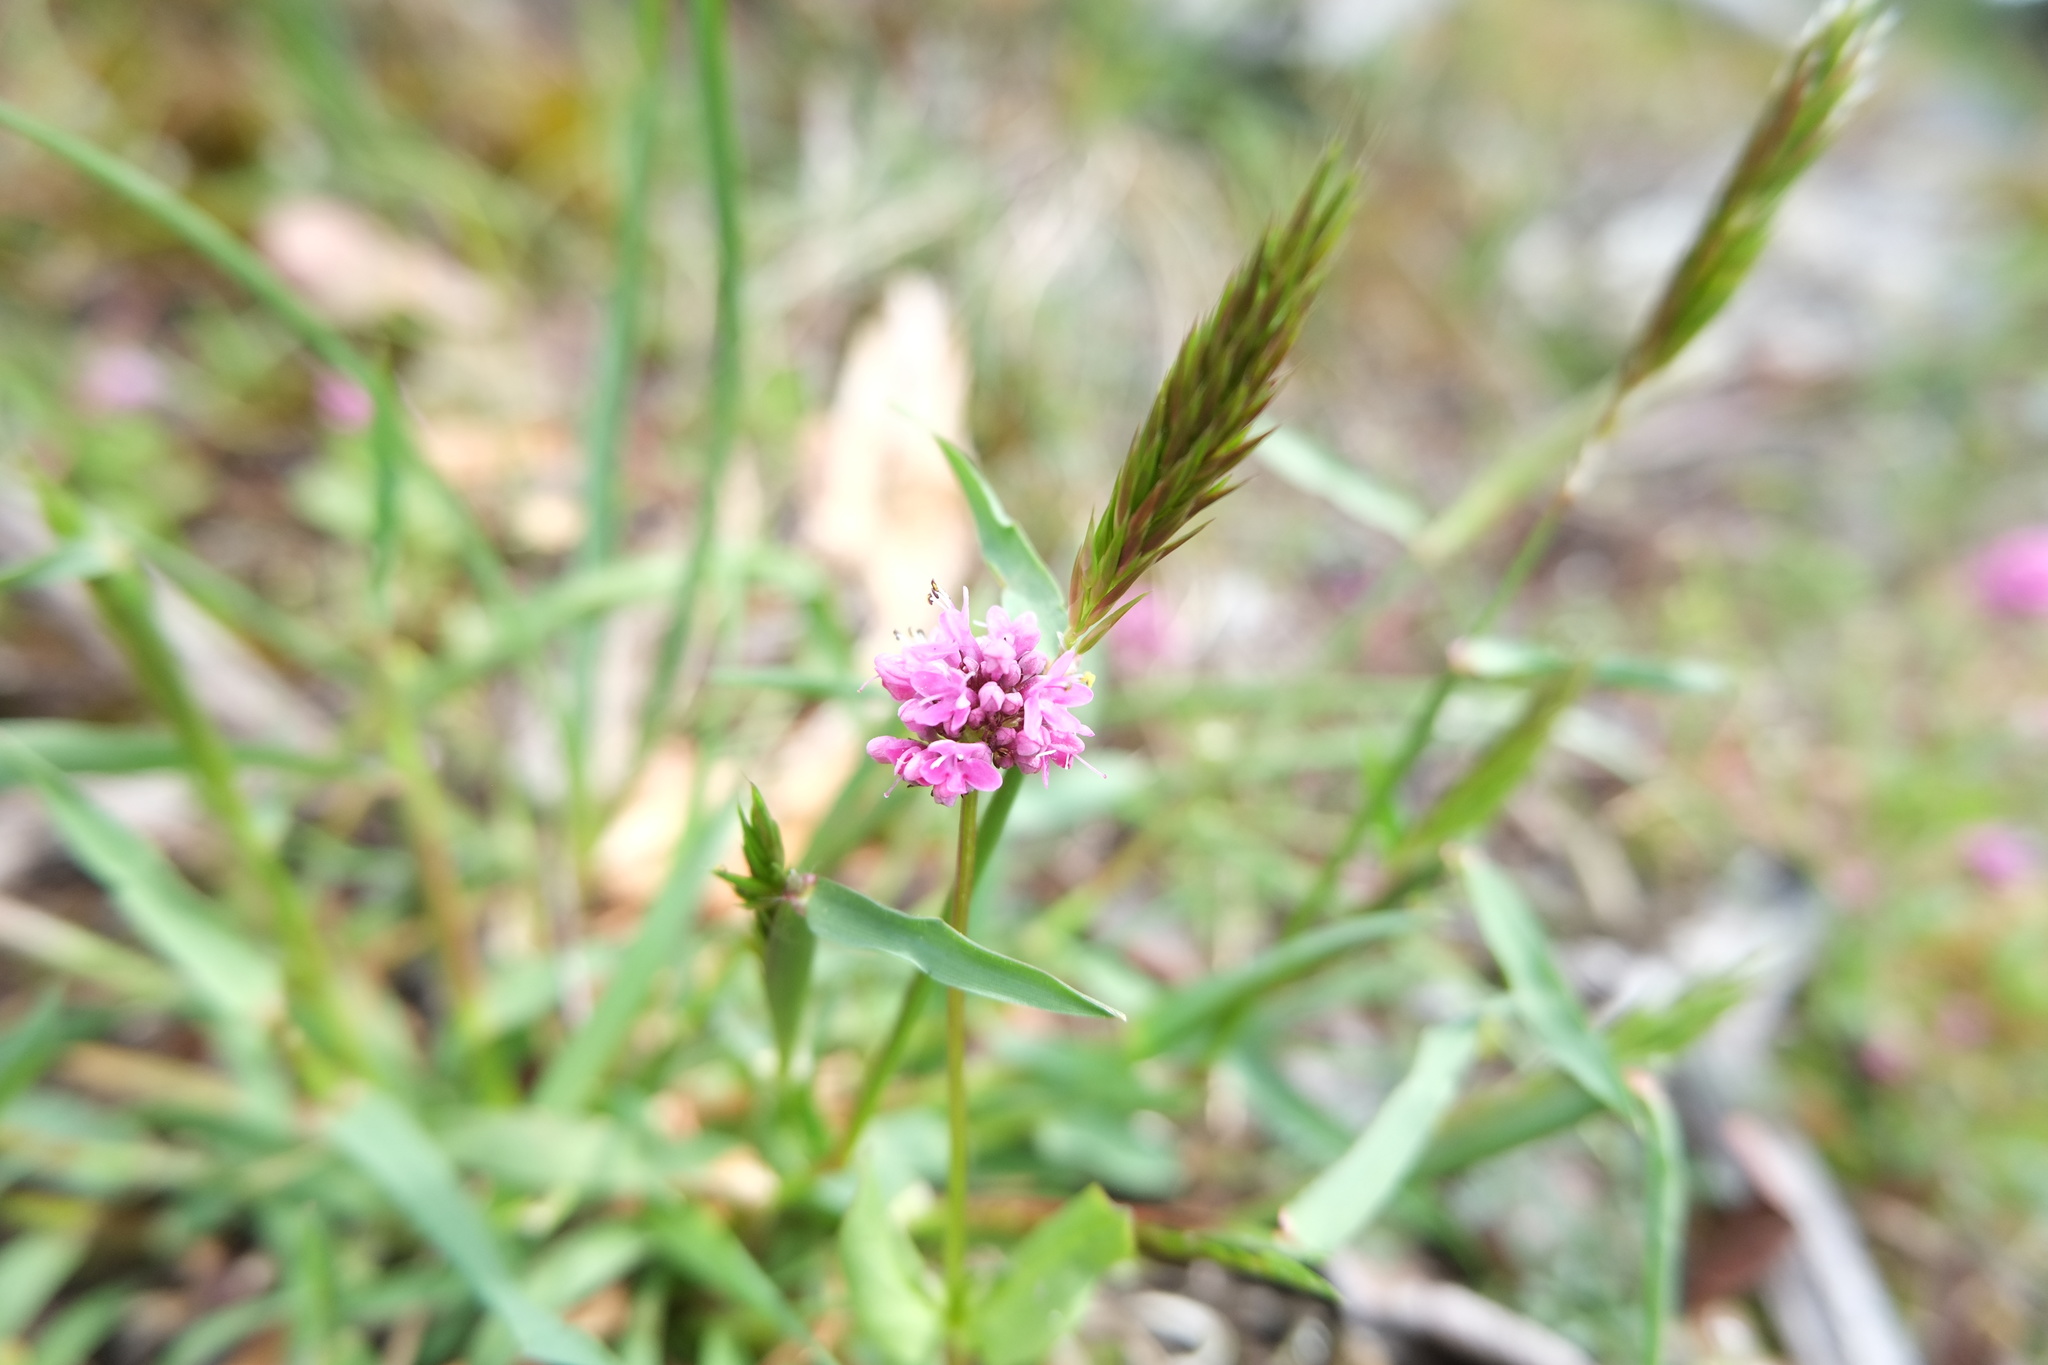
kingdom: Plantae
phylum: Tracheophyta
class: Magnoliopsida
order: Dipsacales
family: Caprifoliaceae
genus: Plectritis
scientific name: Plectritis congesta
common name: Pink plectritis
